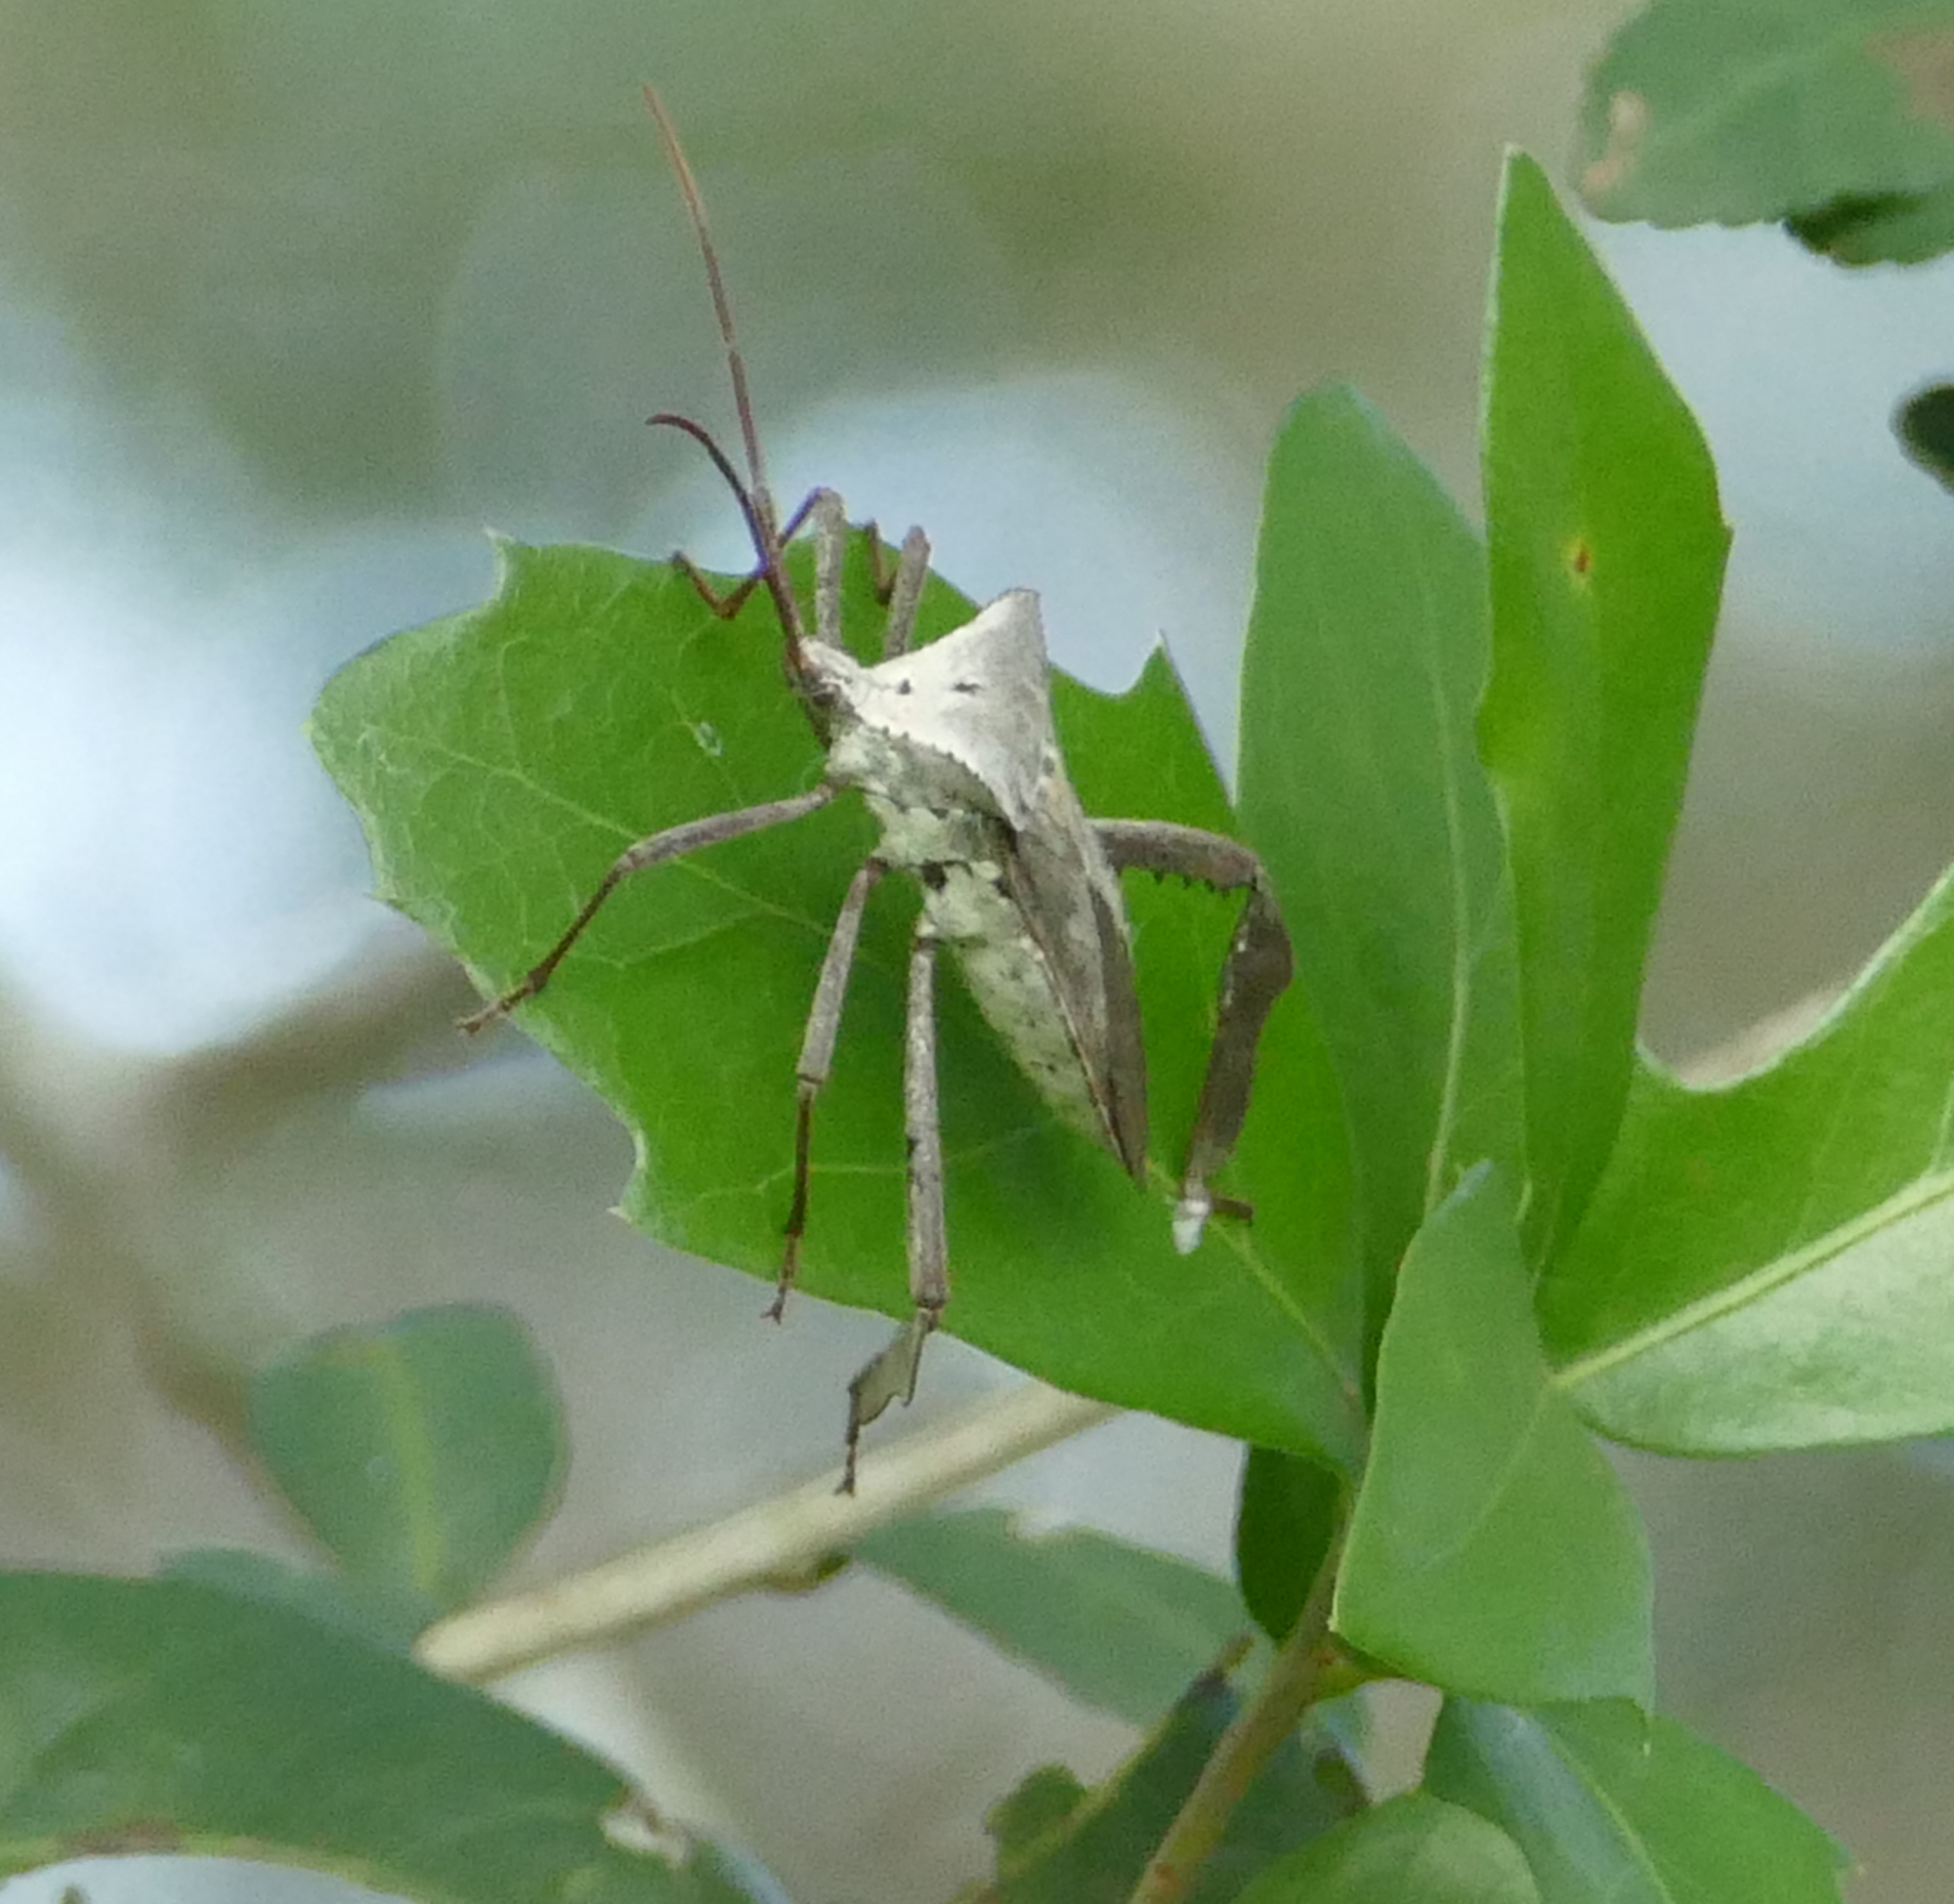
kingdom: Animalia
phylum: Arthropoda
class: Insecta
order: Hemiptera
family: Coreidae
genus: Acanthocephala
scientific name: Acanthocephala declivis
